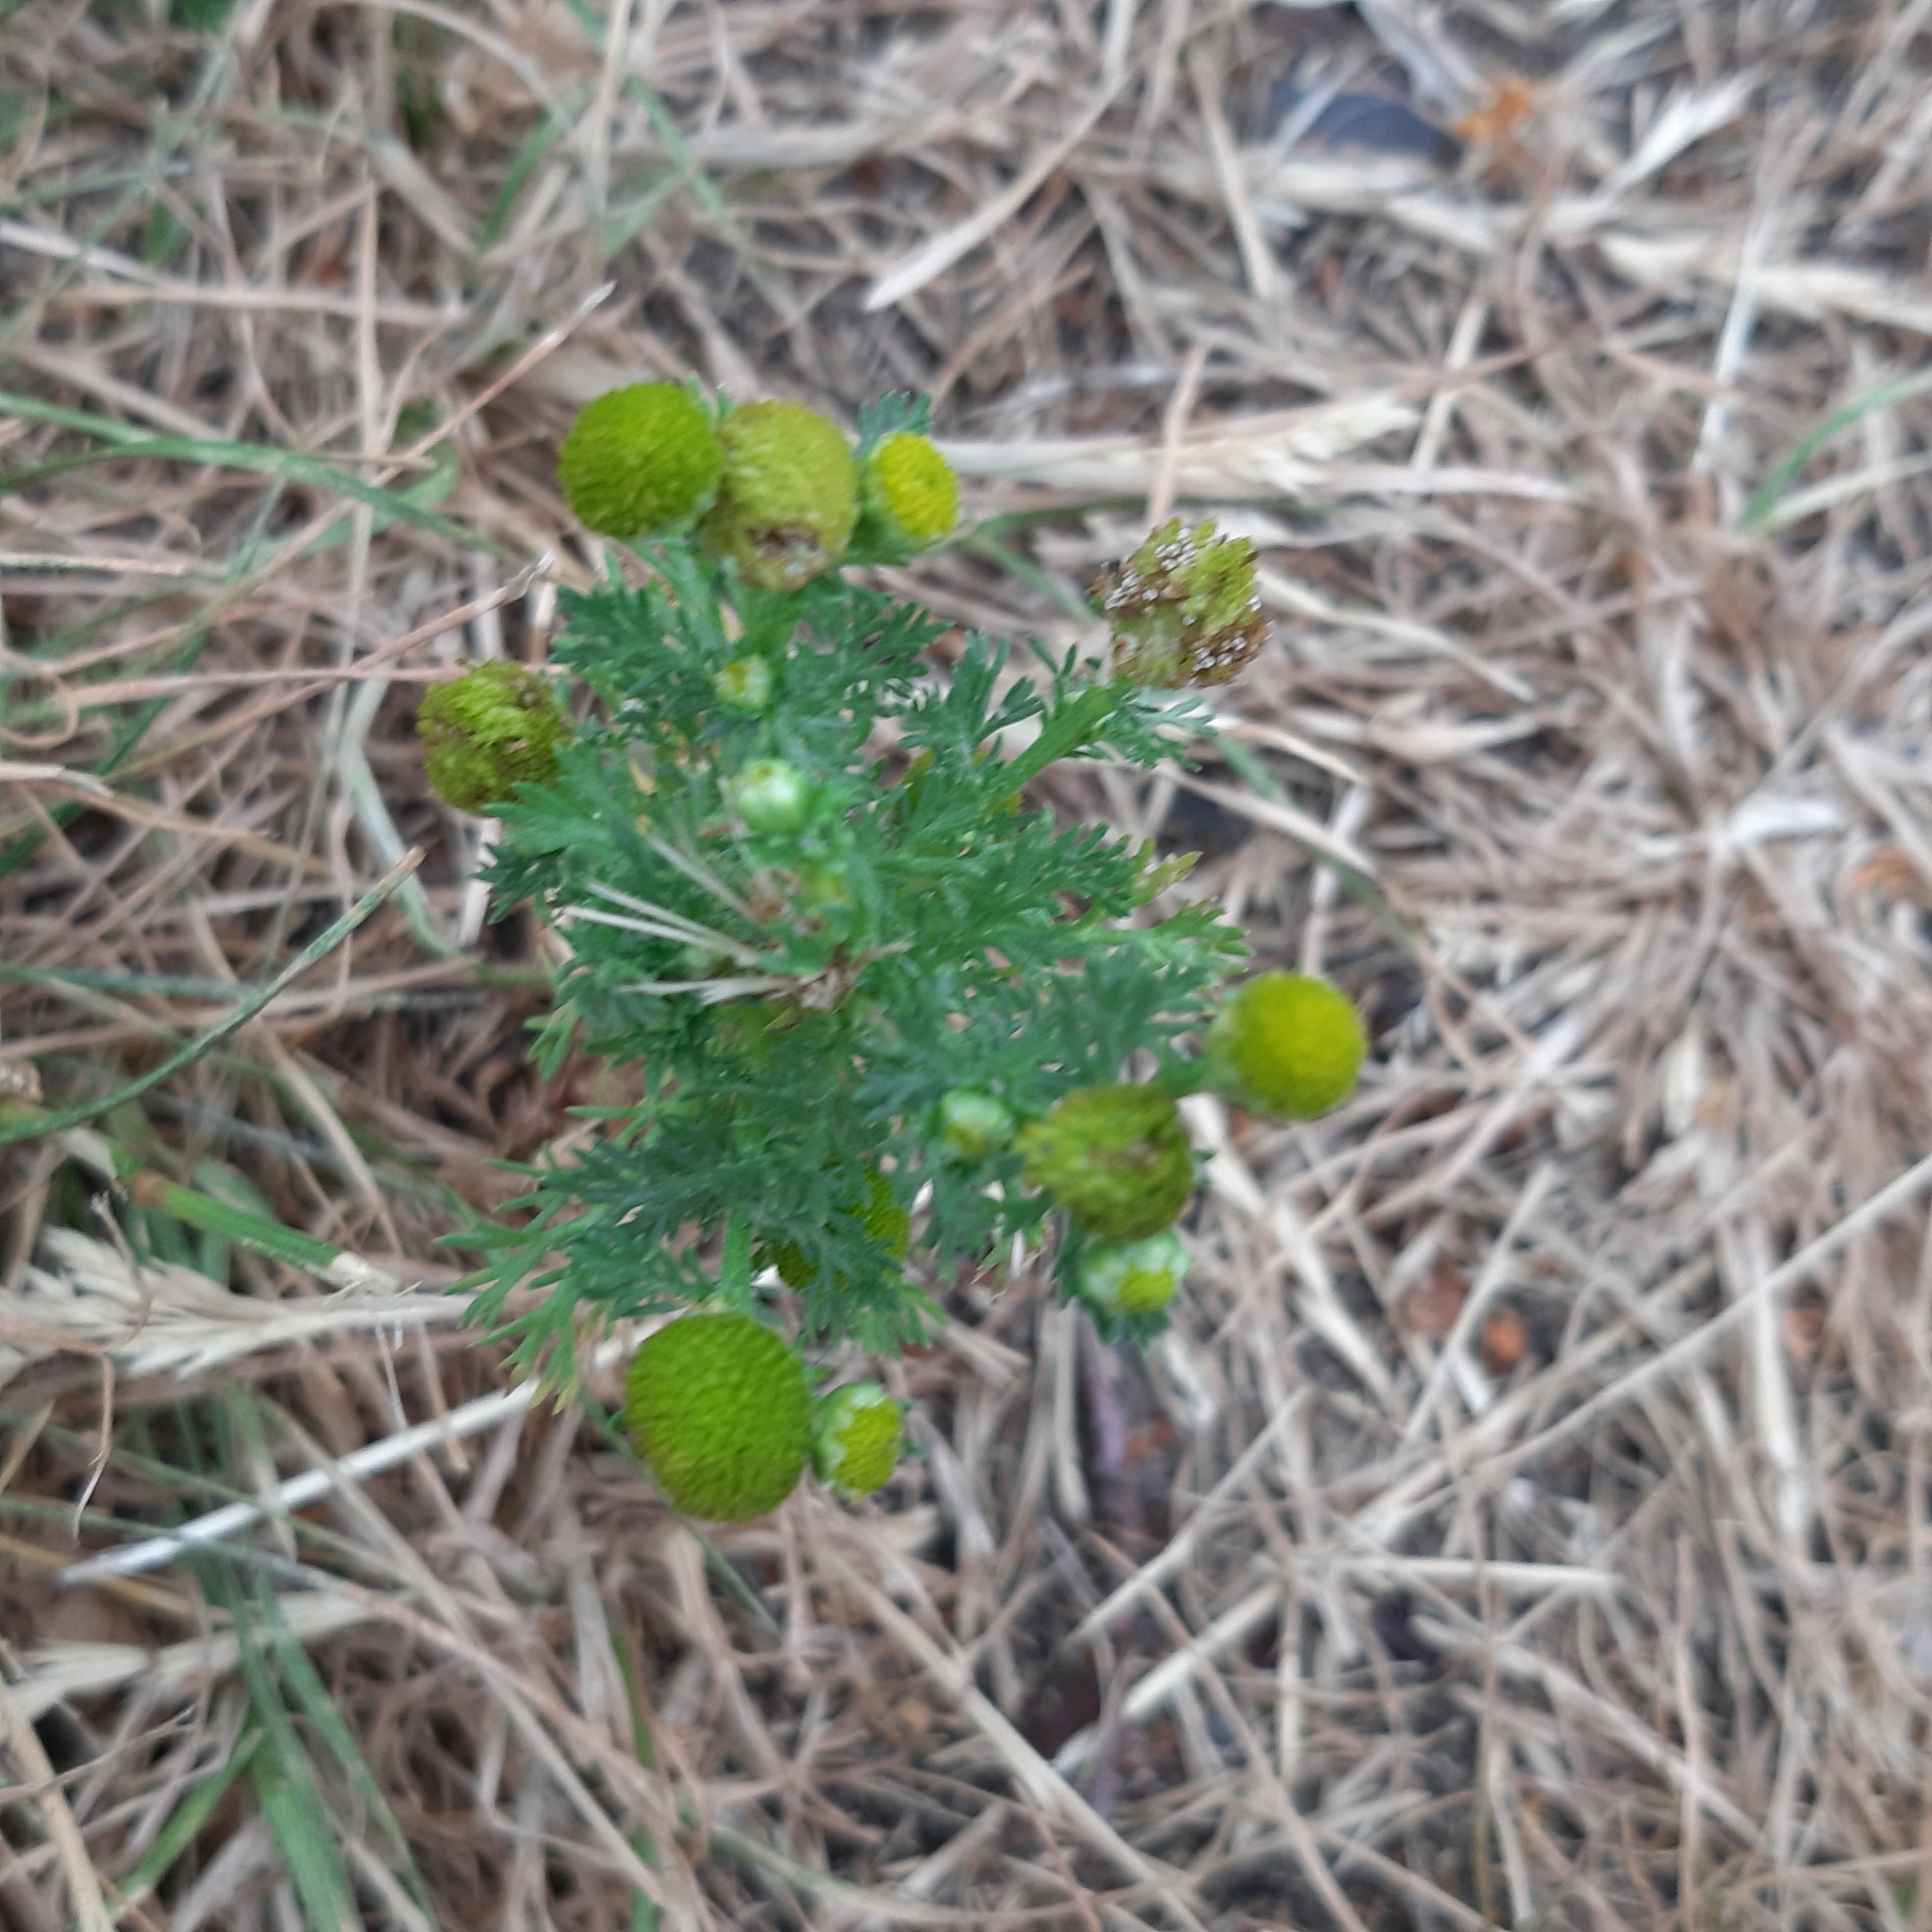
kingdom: Plantae
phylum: Tracheophyta
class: Magnoliopsida
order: Asterales
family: Asteraceae
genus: Matricaria
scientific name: Matricaria discoidea
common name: Disc mayweed
